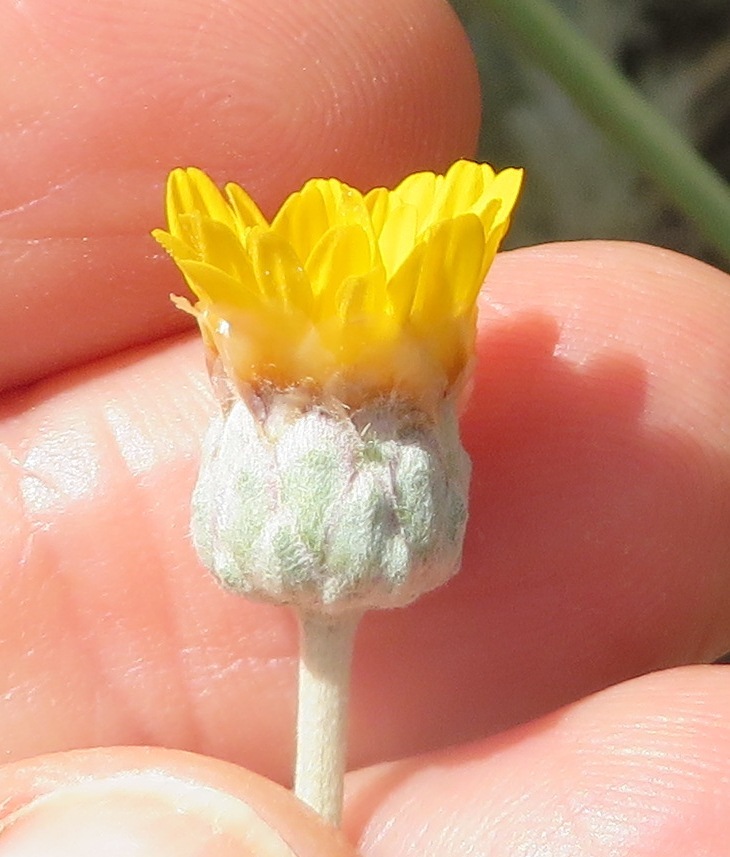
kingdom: Plantae
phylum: Tracheophyta
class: Magnoliopsida
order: Asterales
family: Asteraceae
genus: Ursinia
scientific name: Ursinia sericea
